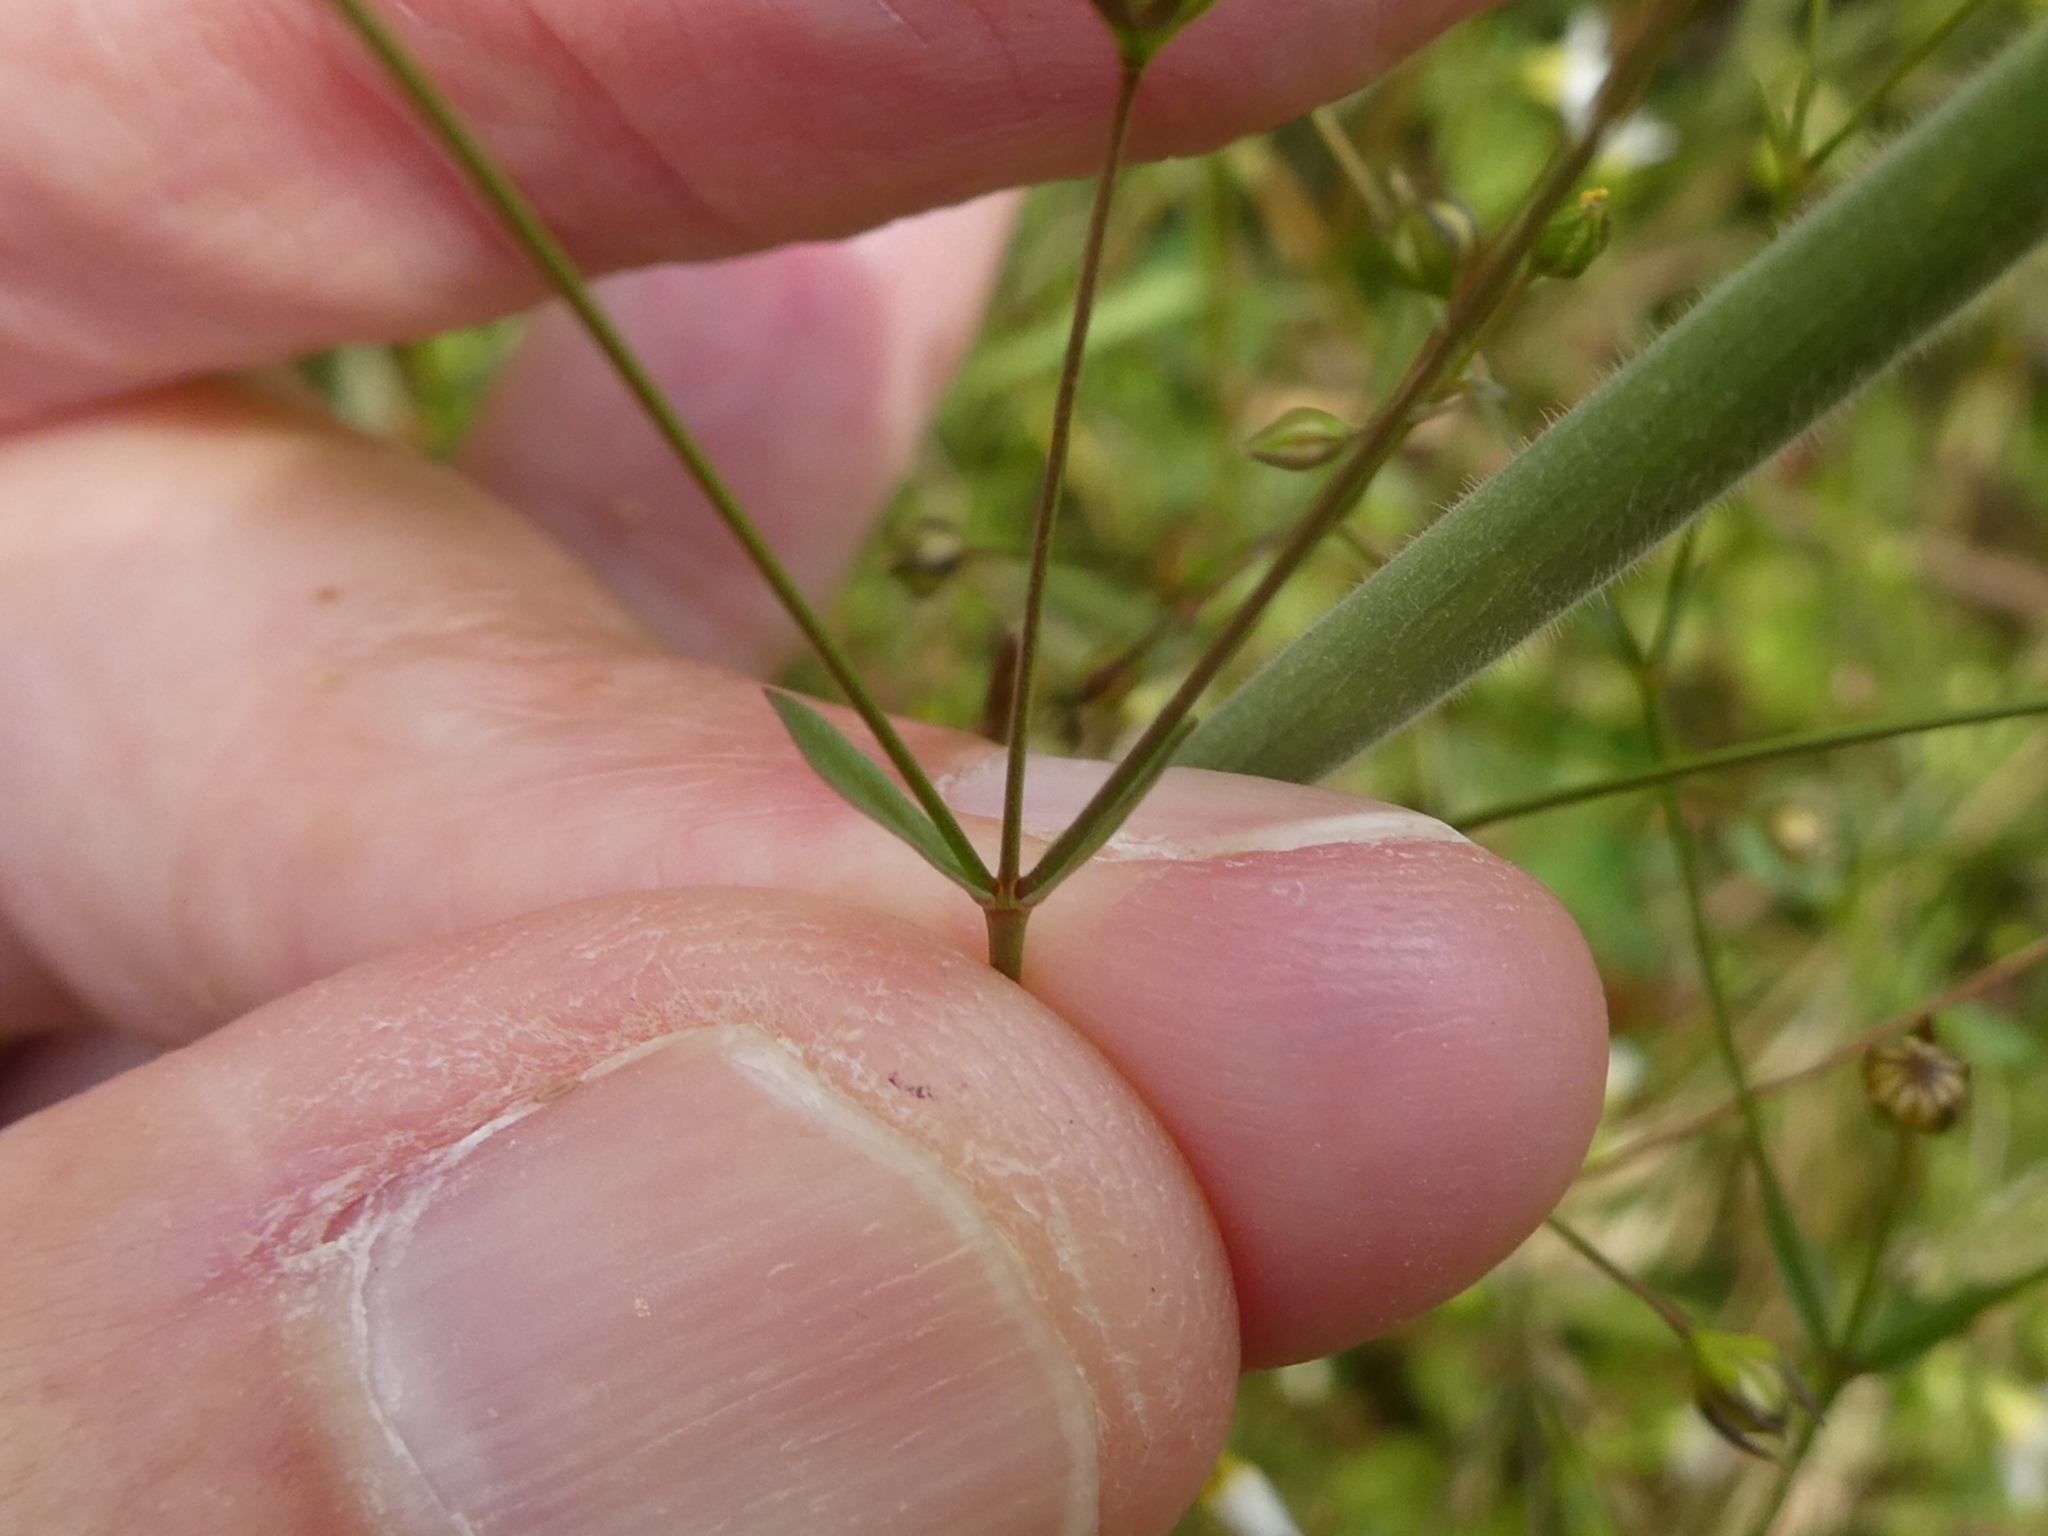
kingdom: Plantae
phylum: Tracheophyta
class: Magnoliopsida
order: Malpighiales
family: Linaceae
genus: Linum
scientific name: Linum catharticum
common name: Fairy flax
